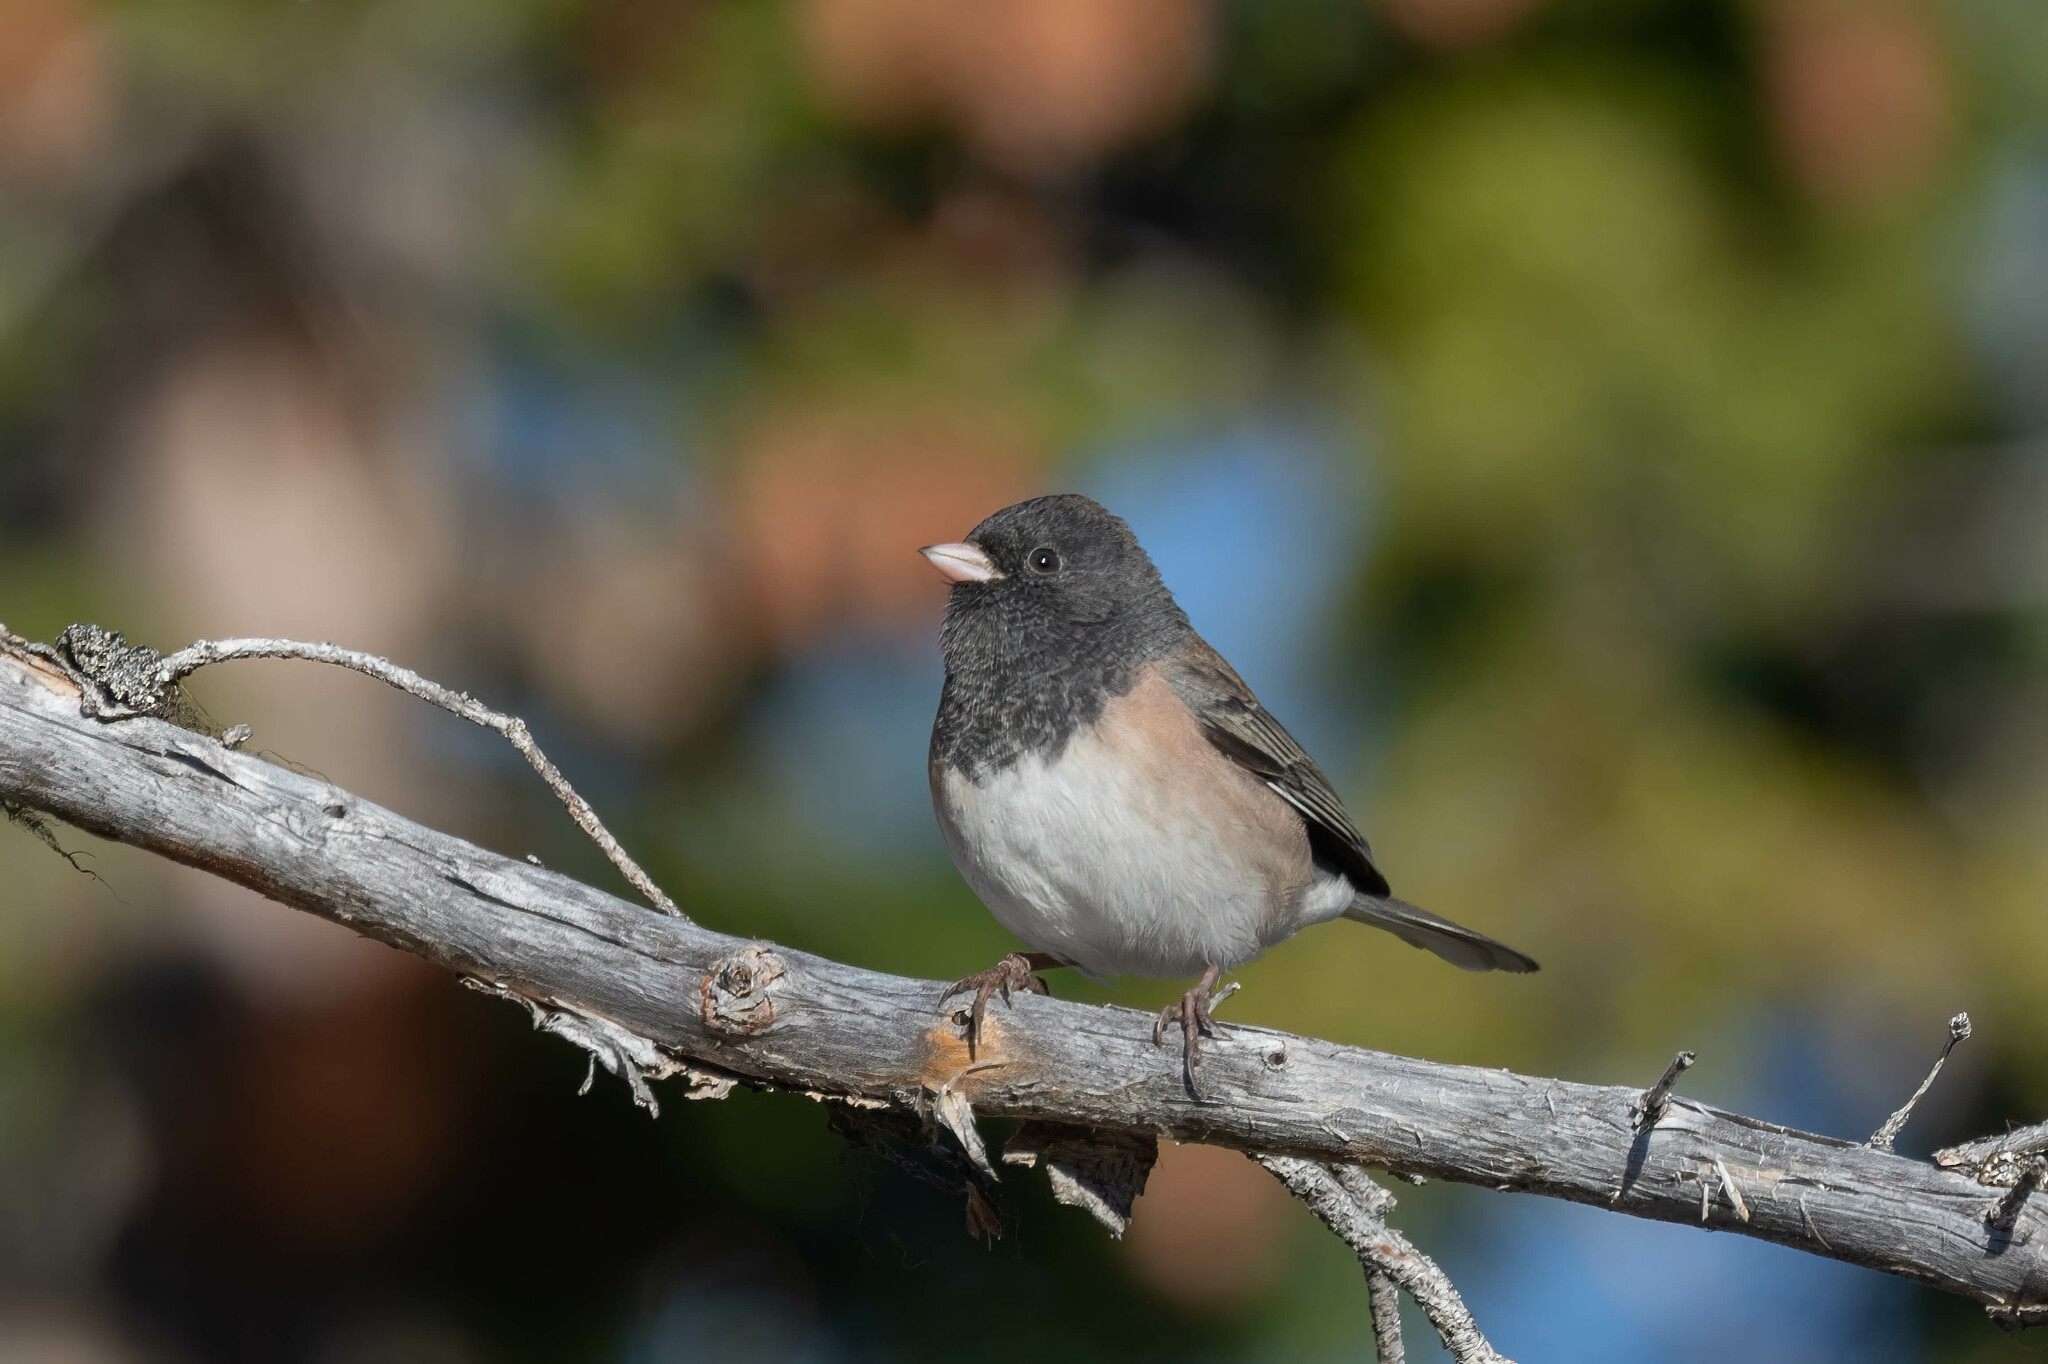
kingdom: Animalia
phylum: Chordata
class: Aves
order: Passeriformes
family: Passerellidae
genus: Junco
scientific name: Junco hyemalis
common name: Dark-eyed junco
